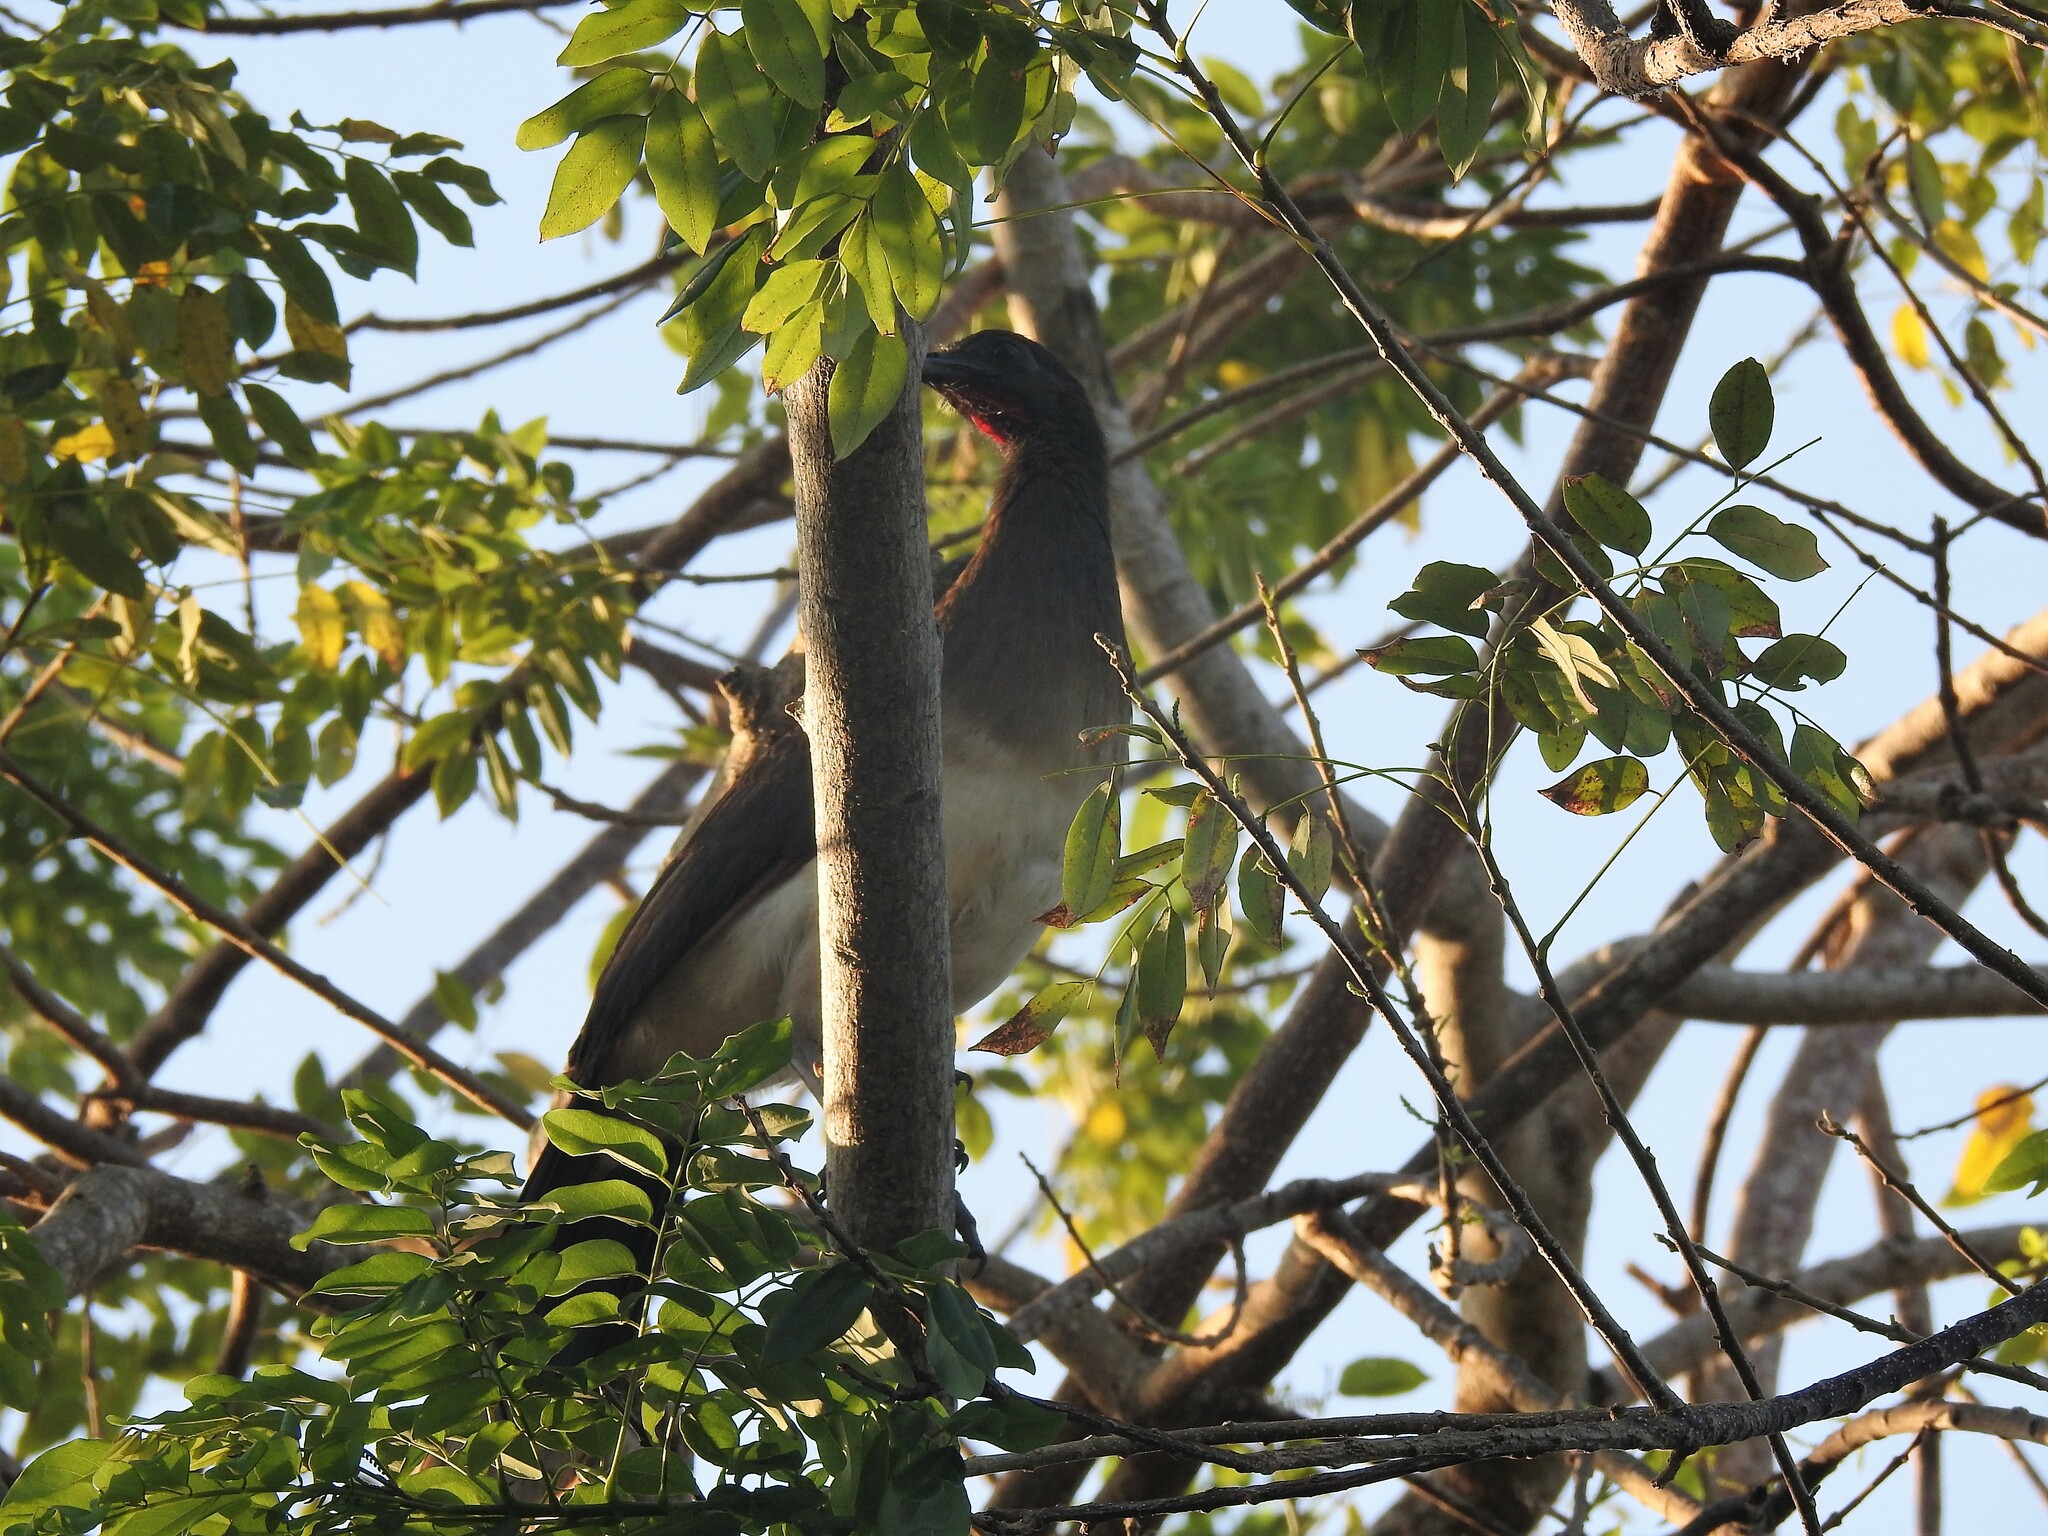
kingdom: Animalia
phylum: Chordata
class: Aves
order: Galliformes
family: Cracidae
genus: Ortalis
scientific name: Ortalis garrula
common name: Chestnut-winged chachalaca
